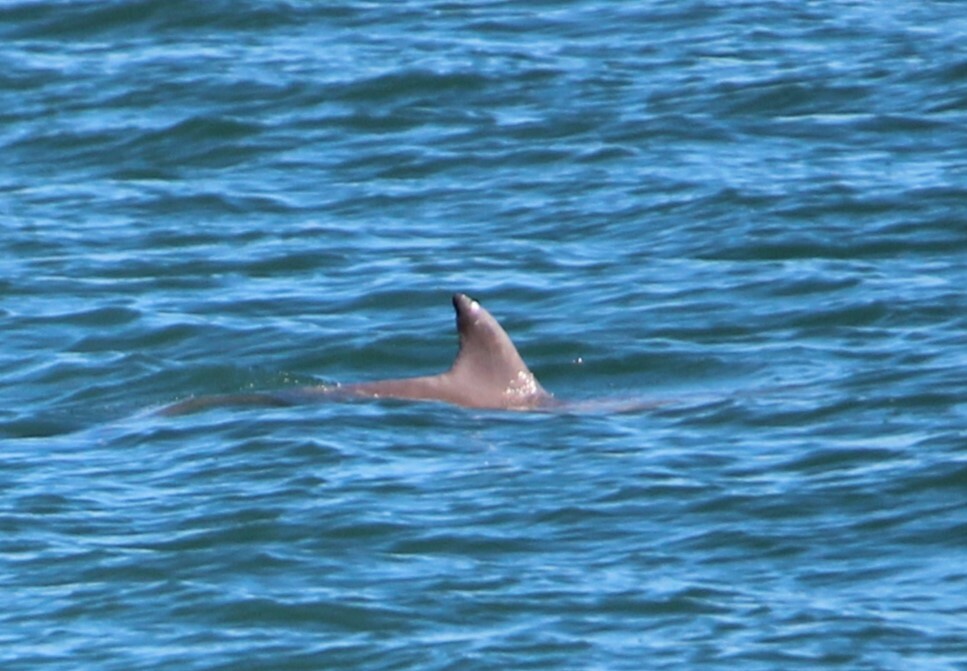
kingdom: Animalia
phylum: Chordata
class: Mammalia
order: Cetacea
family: Delphinidae
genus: Tursiops
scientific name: Tursiops truncatus
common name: Bottlenose dolphin
